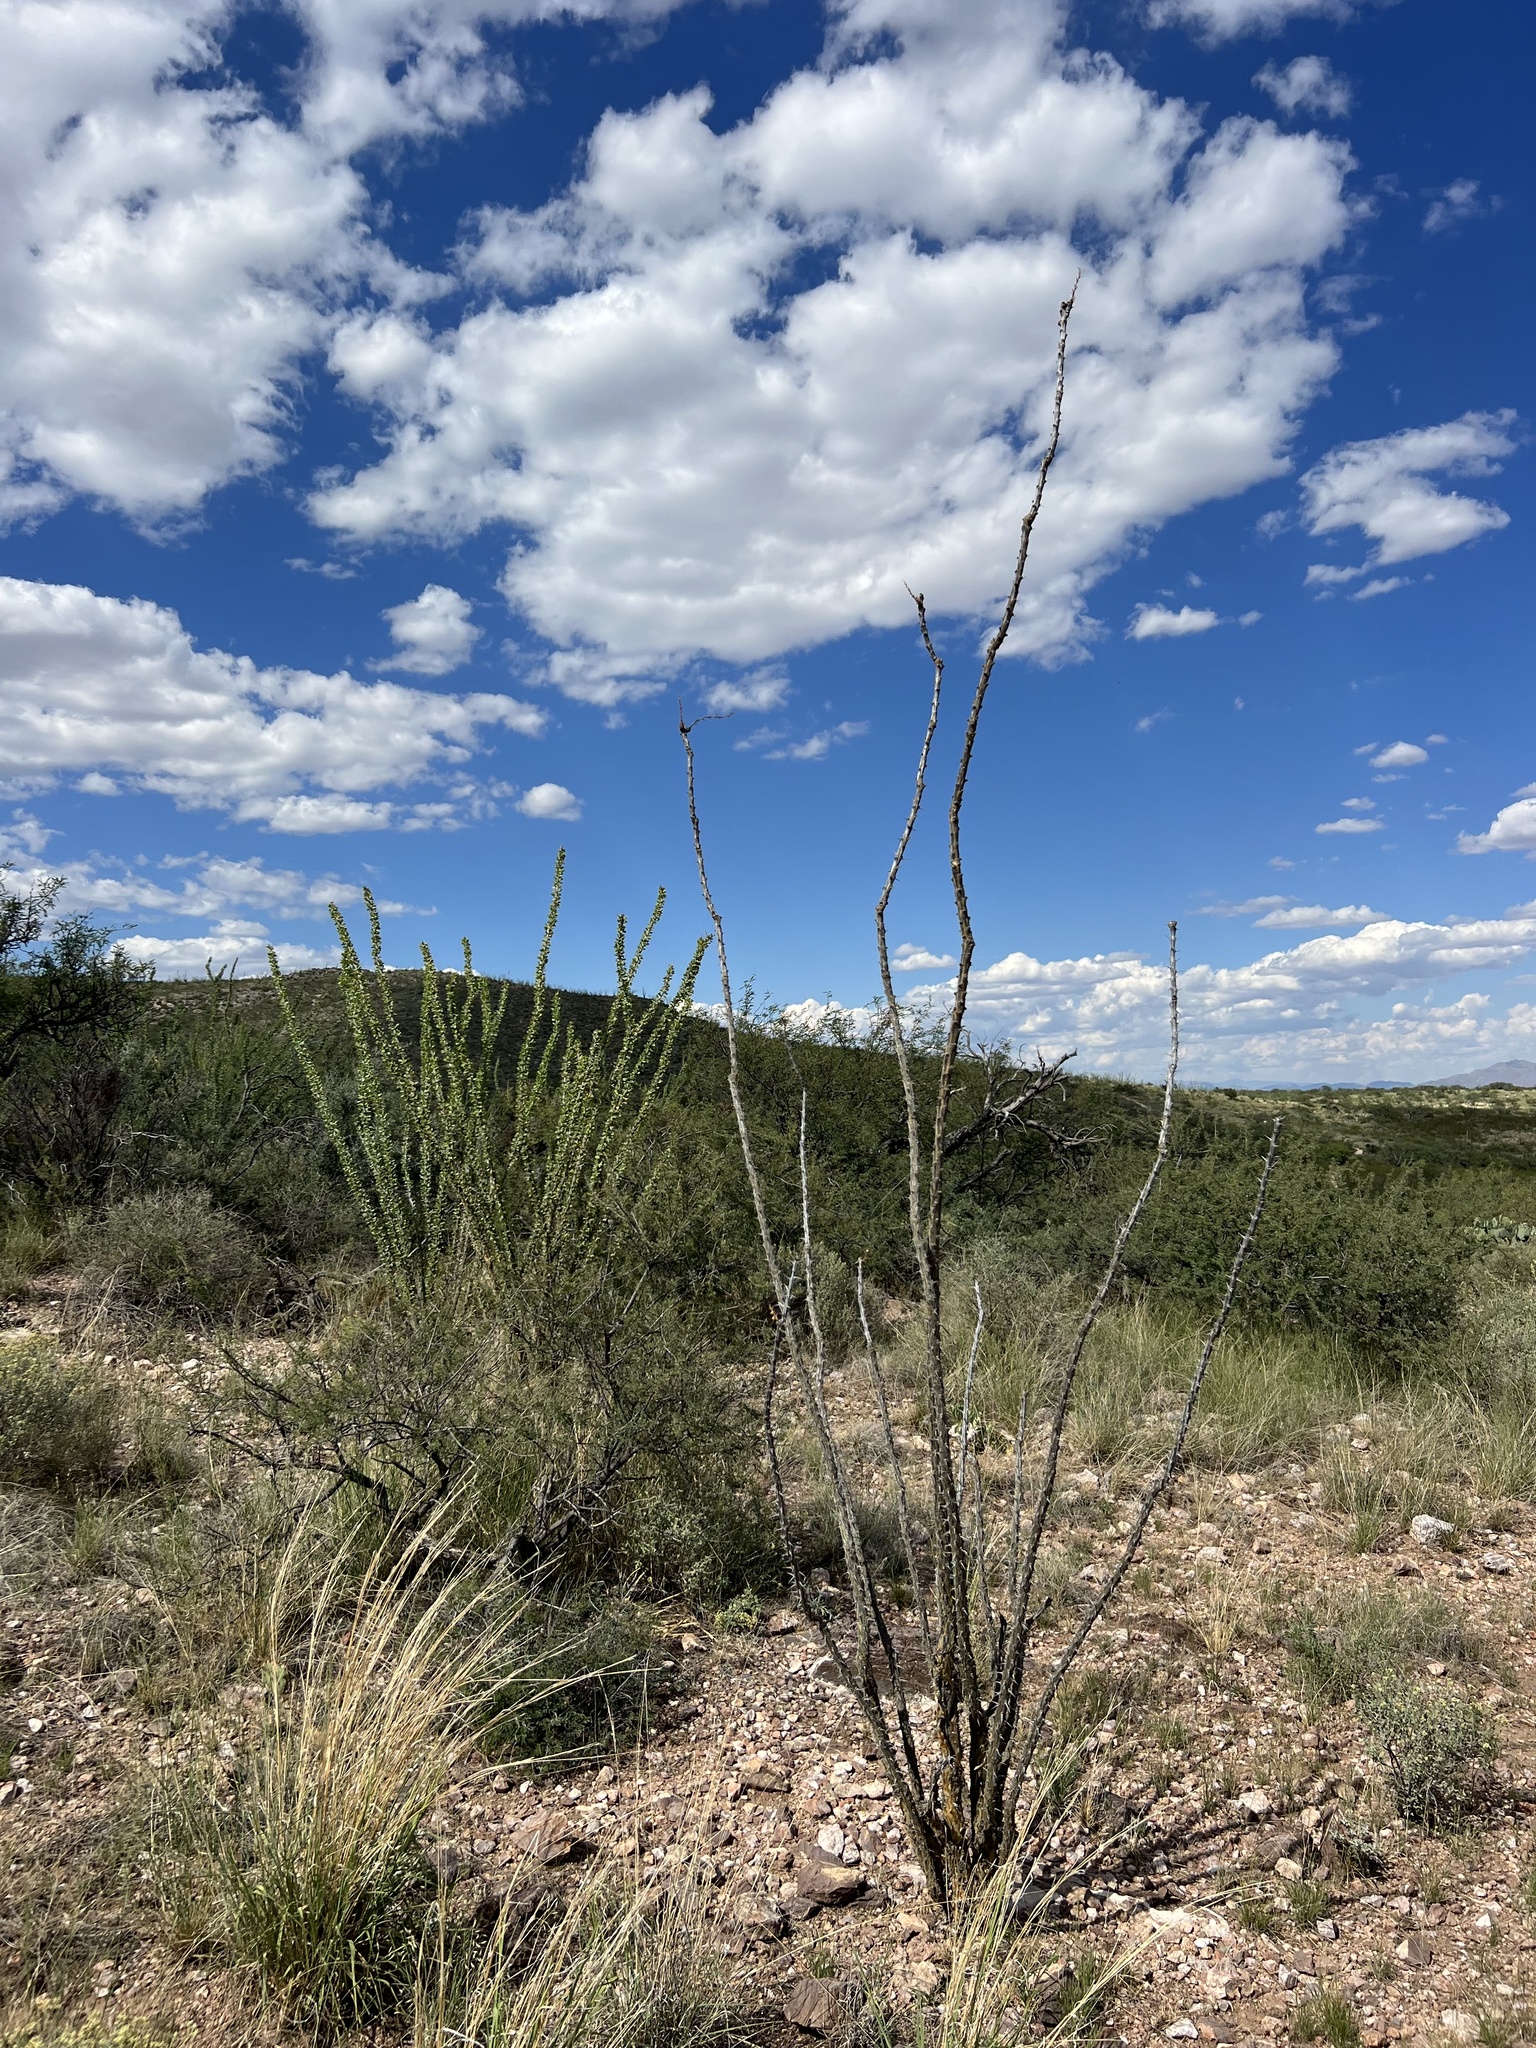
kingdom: Plantae
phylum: Tracheophyta
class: Magnoliopsida
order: Ericales
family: Fouquieriaceae
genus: Fouquieria
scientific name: Fouquieria splendens
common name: Vine-cactus
